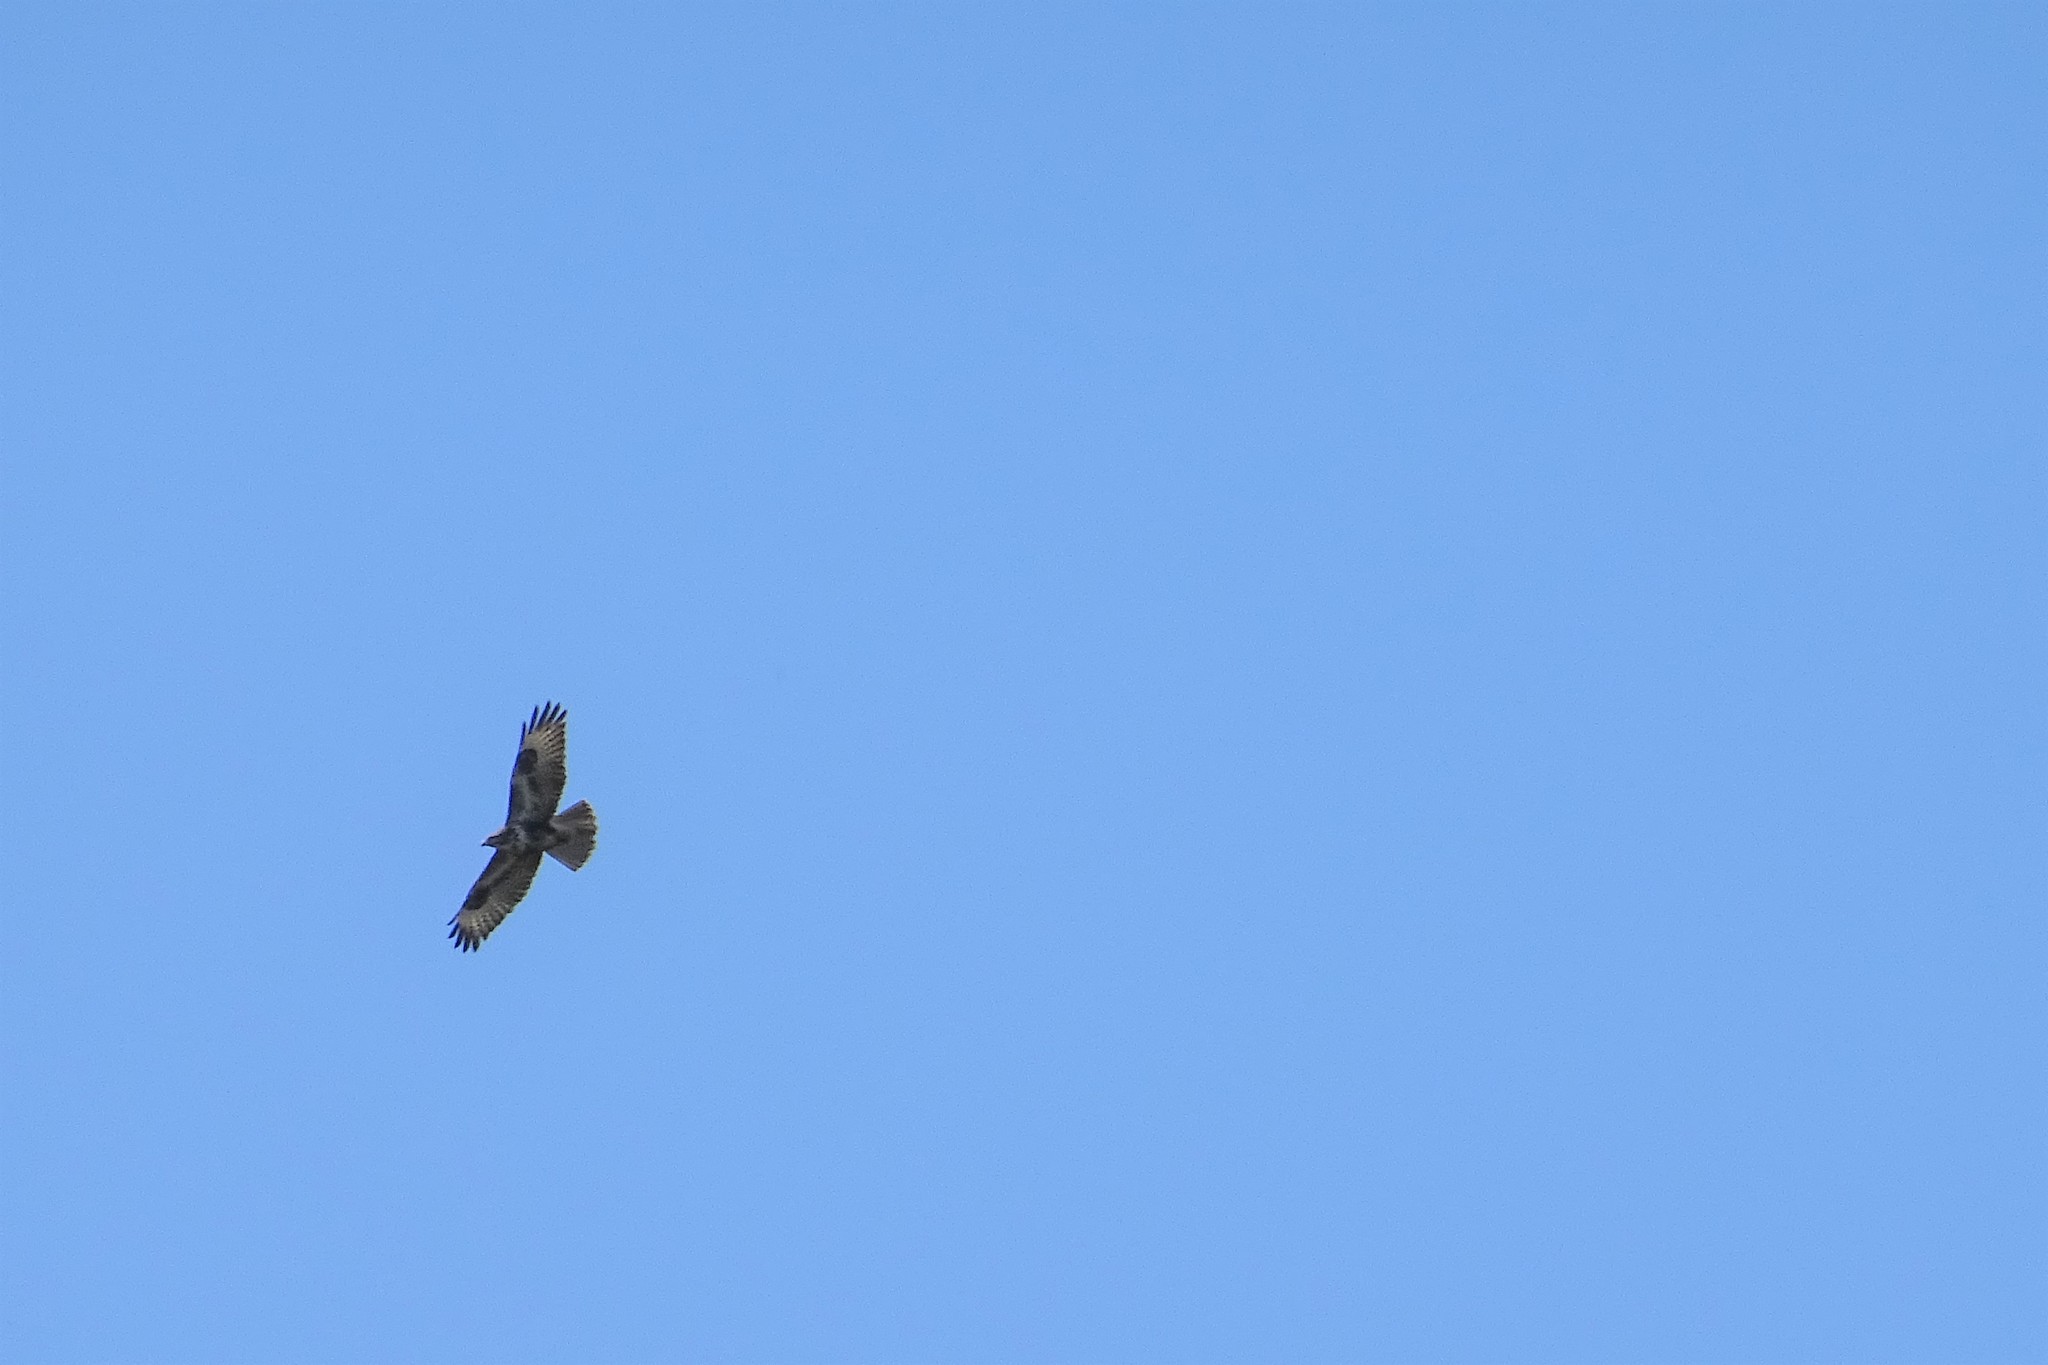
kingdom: Animalia
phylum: Chordata
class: Aves
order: Accipitriformes
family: Accipitridae
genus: Buteo
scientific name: Buteo buteo
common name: Common buzzard
